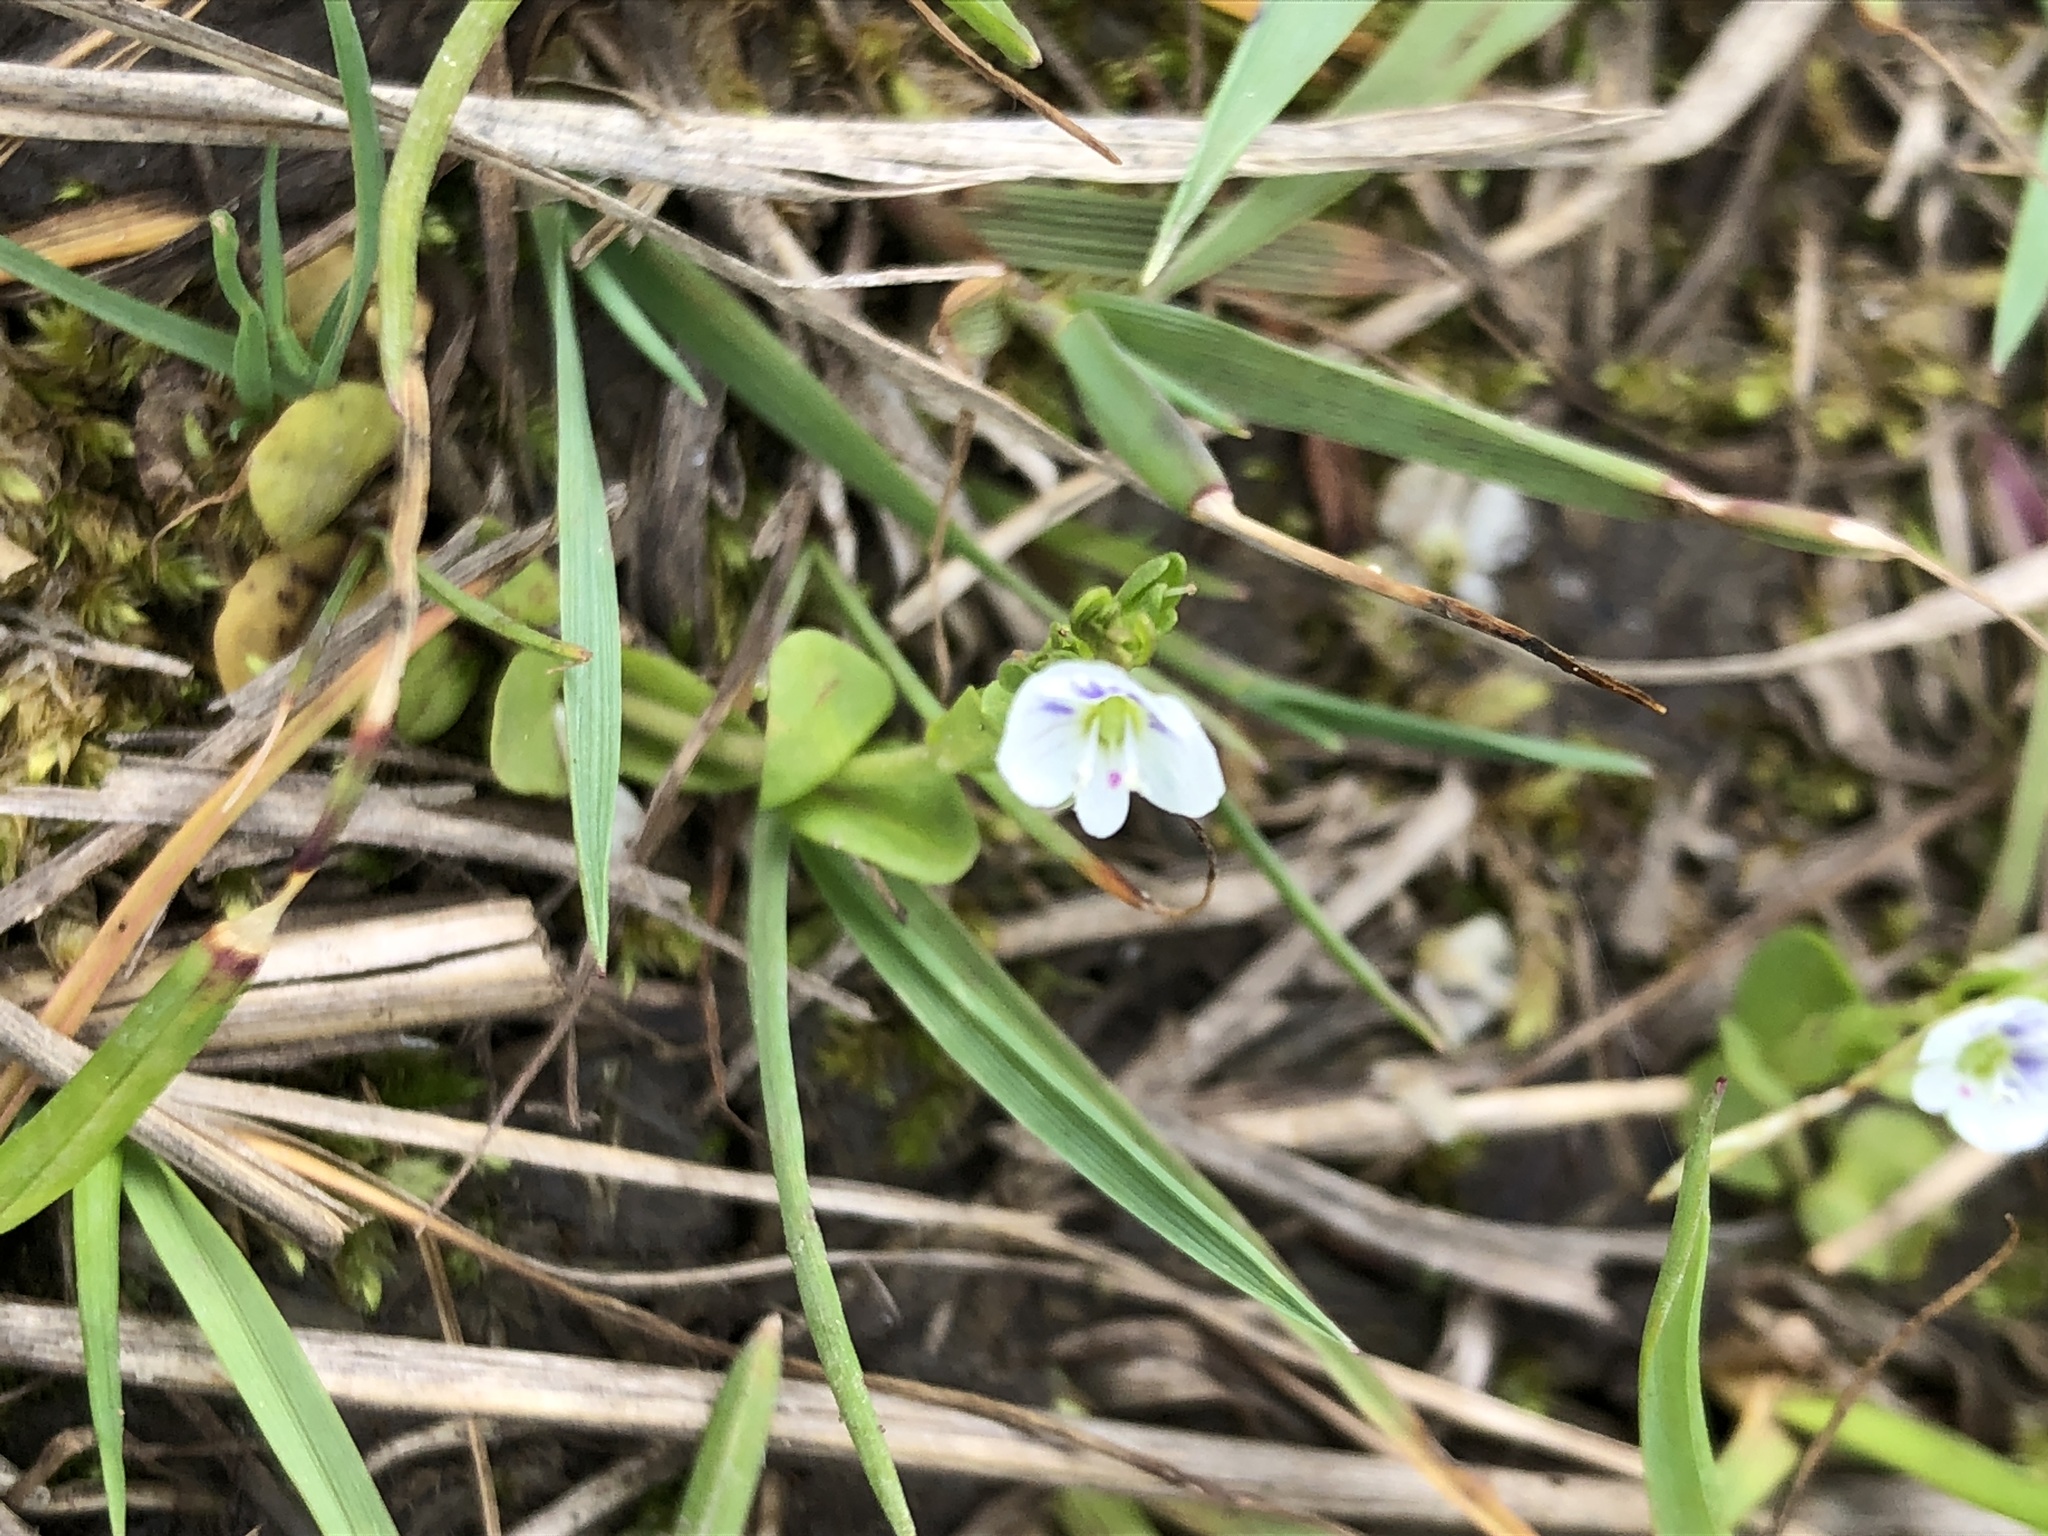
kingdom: Plantae
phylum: Tracheophyta
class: Magnoliopsida
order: Lamiales
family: Plantaginaceae
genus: Veronica
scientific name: Veronica serpyllifolia
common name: Thyme-leaved speedwell
